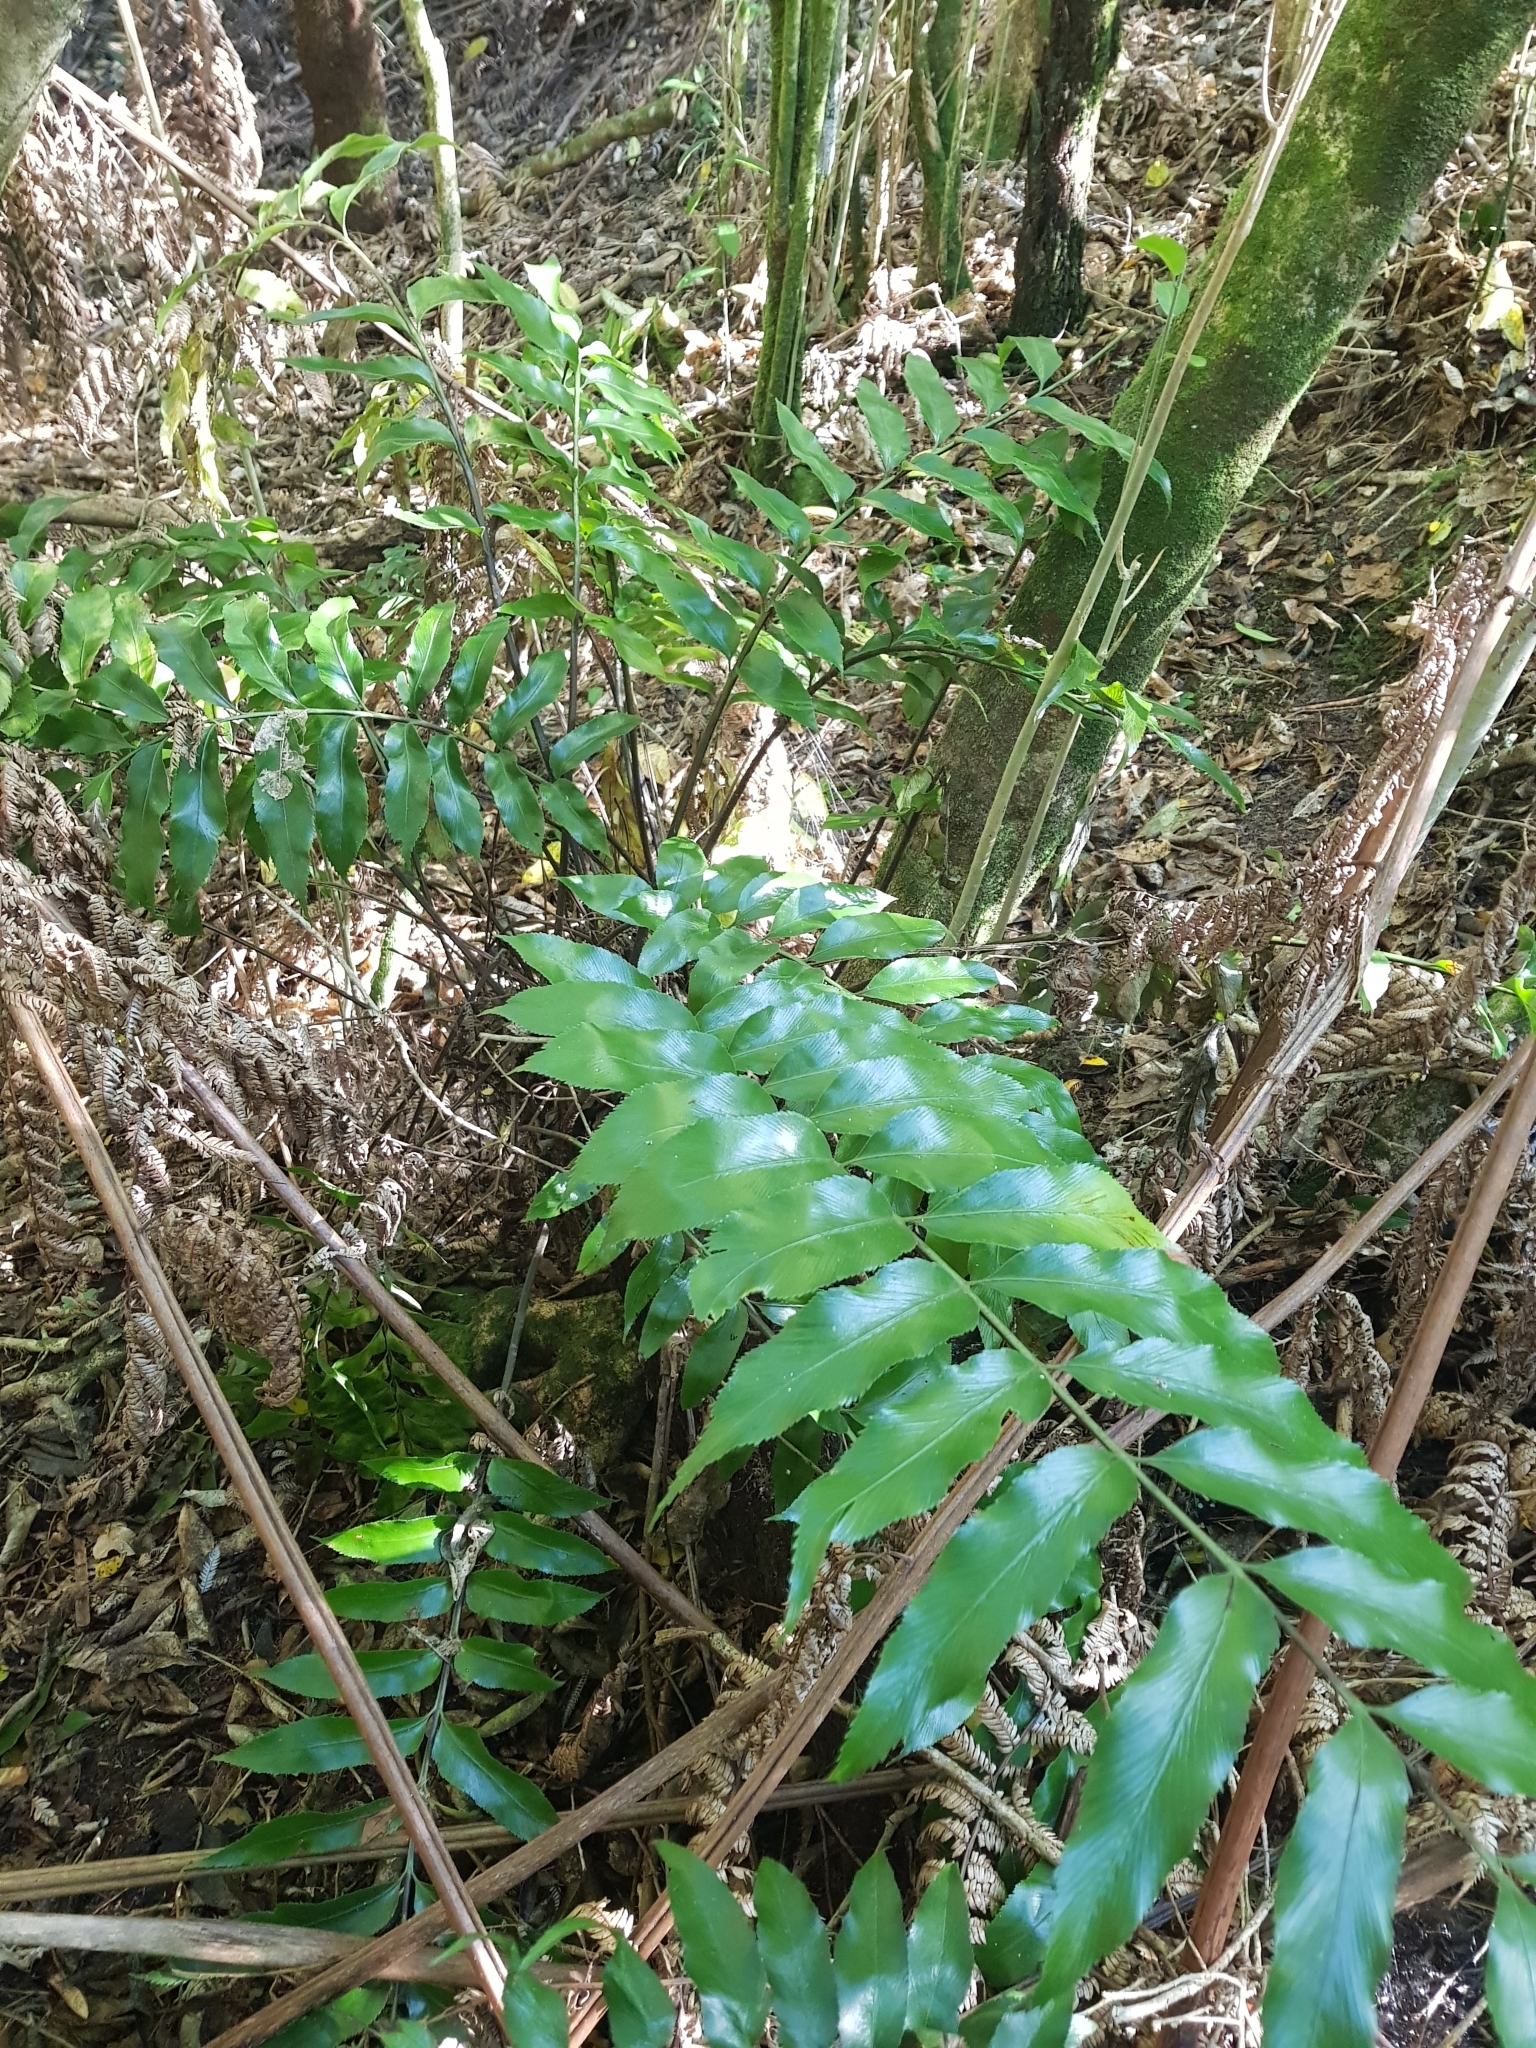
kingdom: Plantae
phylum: Tracheophyta
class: Polypodiopsida
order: Polypodiales
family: Aspleniaceae
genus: Asplenium
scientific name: Asplenium oblongifolium
